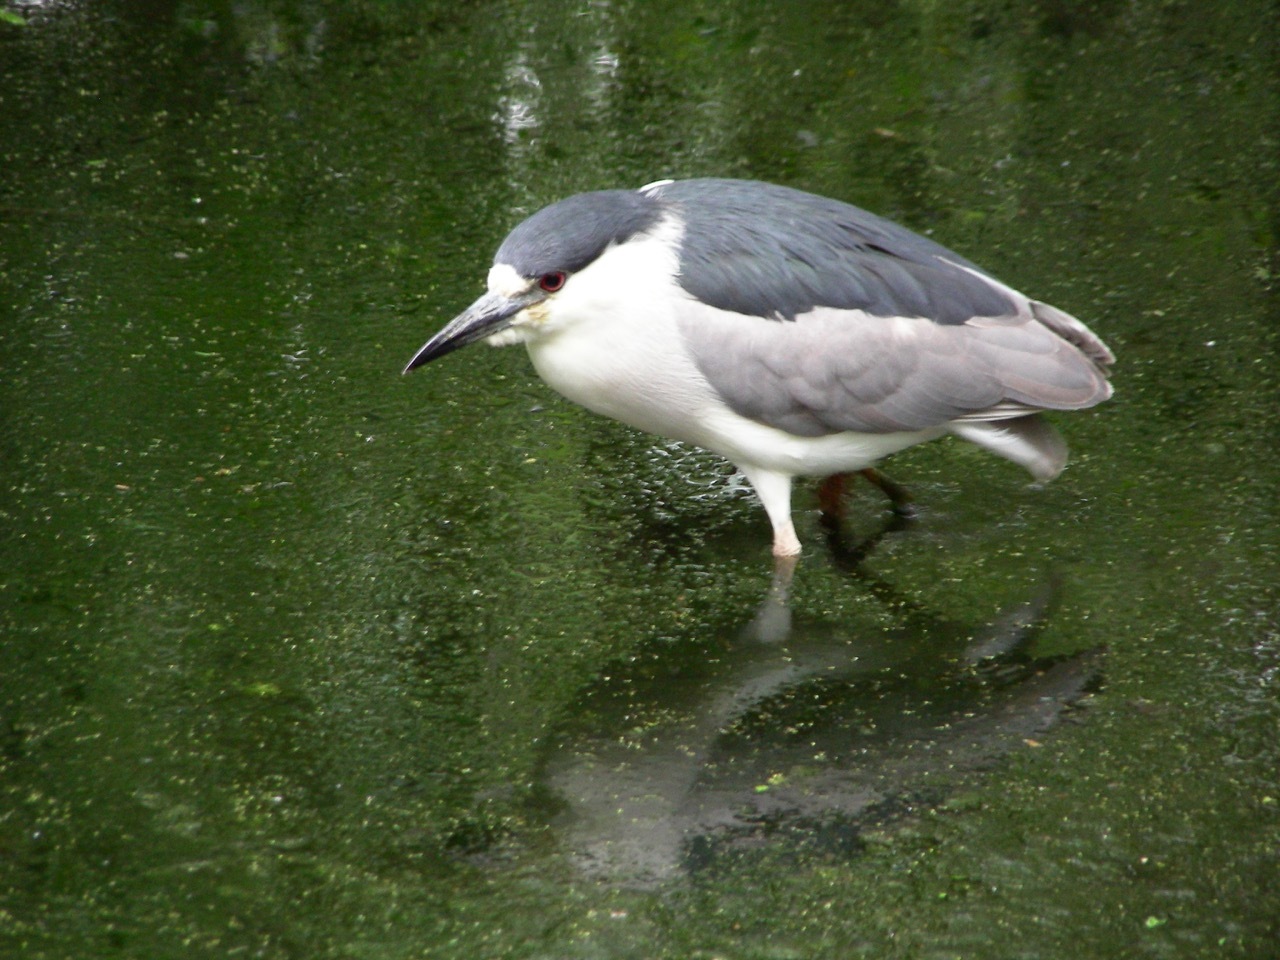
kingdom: Animalia
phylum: Chordata
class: Aves
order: Pelecaniformes
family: Ardeidae
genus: Nycticorax
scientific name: Nycticorax nycticorax
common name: Black-crowned night heron
